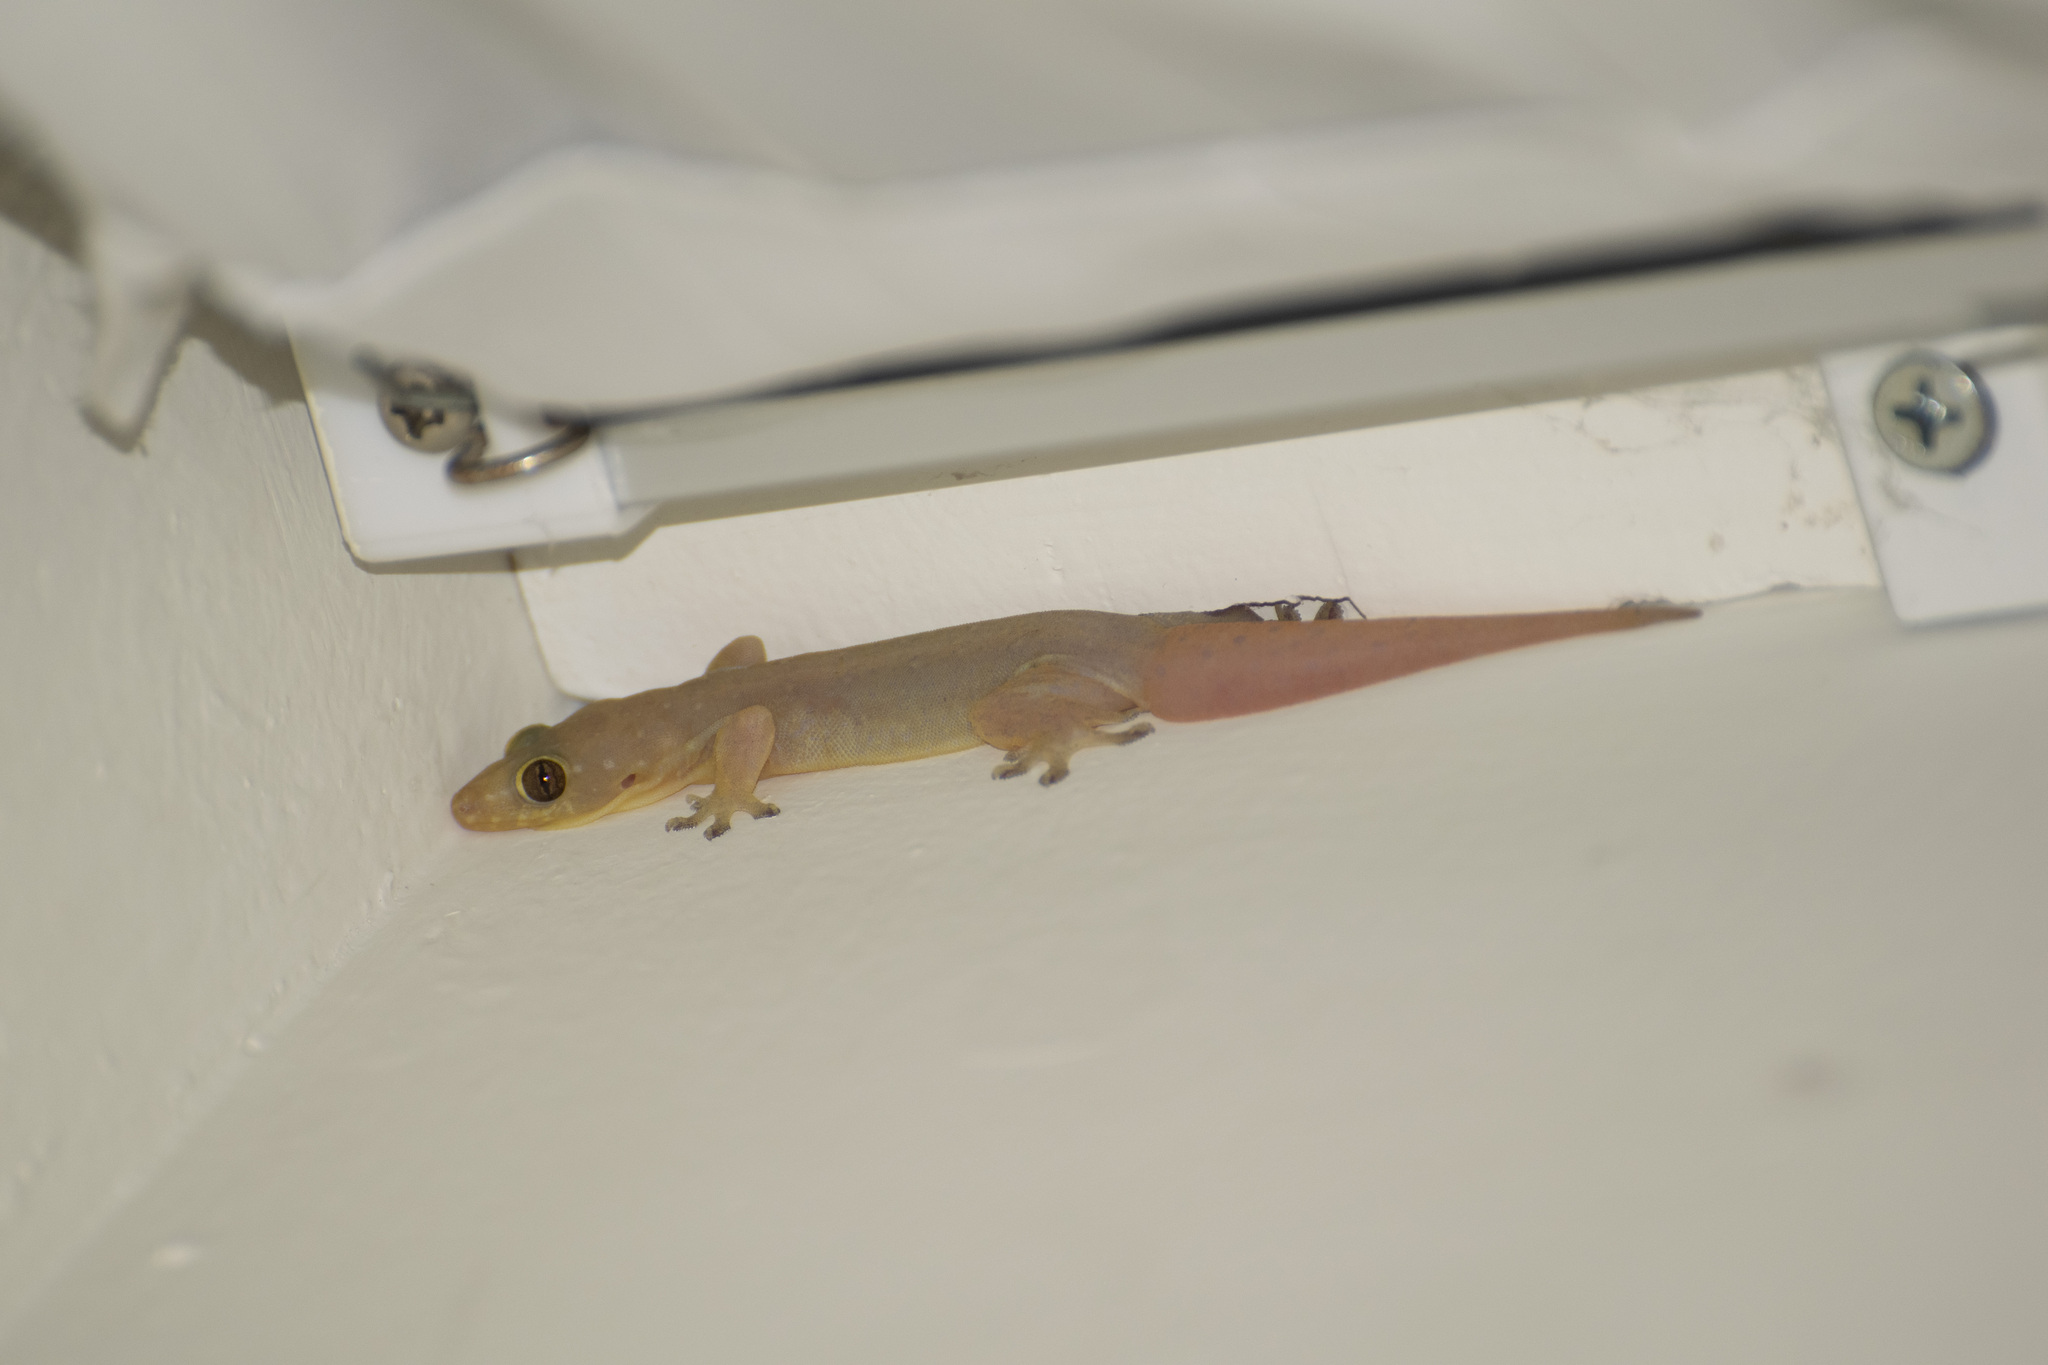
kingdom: Animalia
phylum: Chordata
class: Squamata
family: Gekkonidae
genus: Gehyra
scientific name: Gehyra mutilata
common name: Stump-toed gecko
